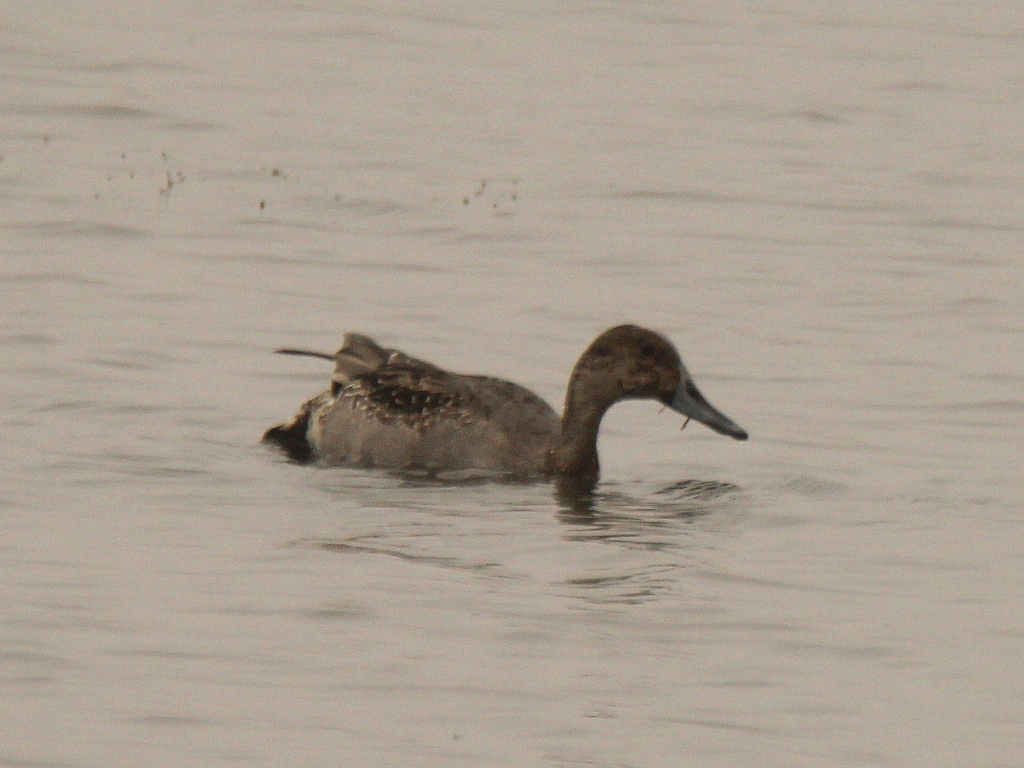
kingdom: Animalia
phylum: Chordata
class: Aves
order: Anseriformes
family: Anatidae
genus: Anas
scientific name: Anas acuta
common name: Northern pintail
